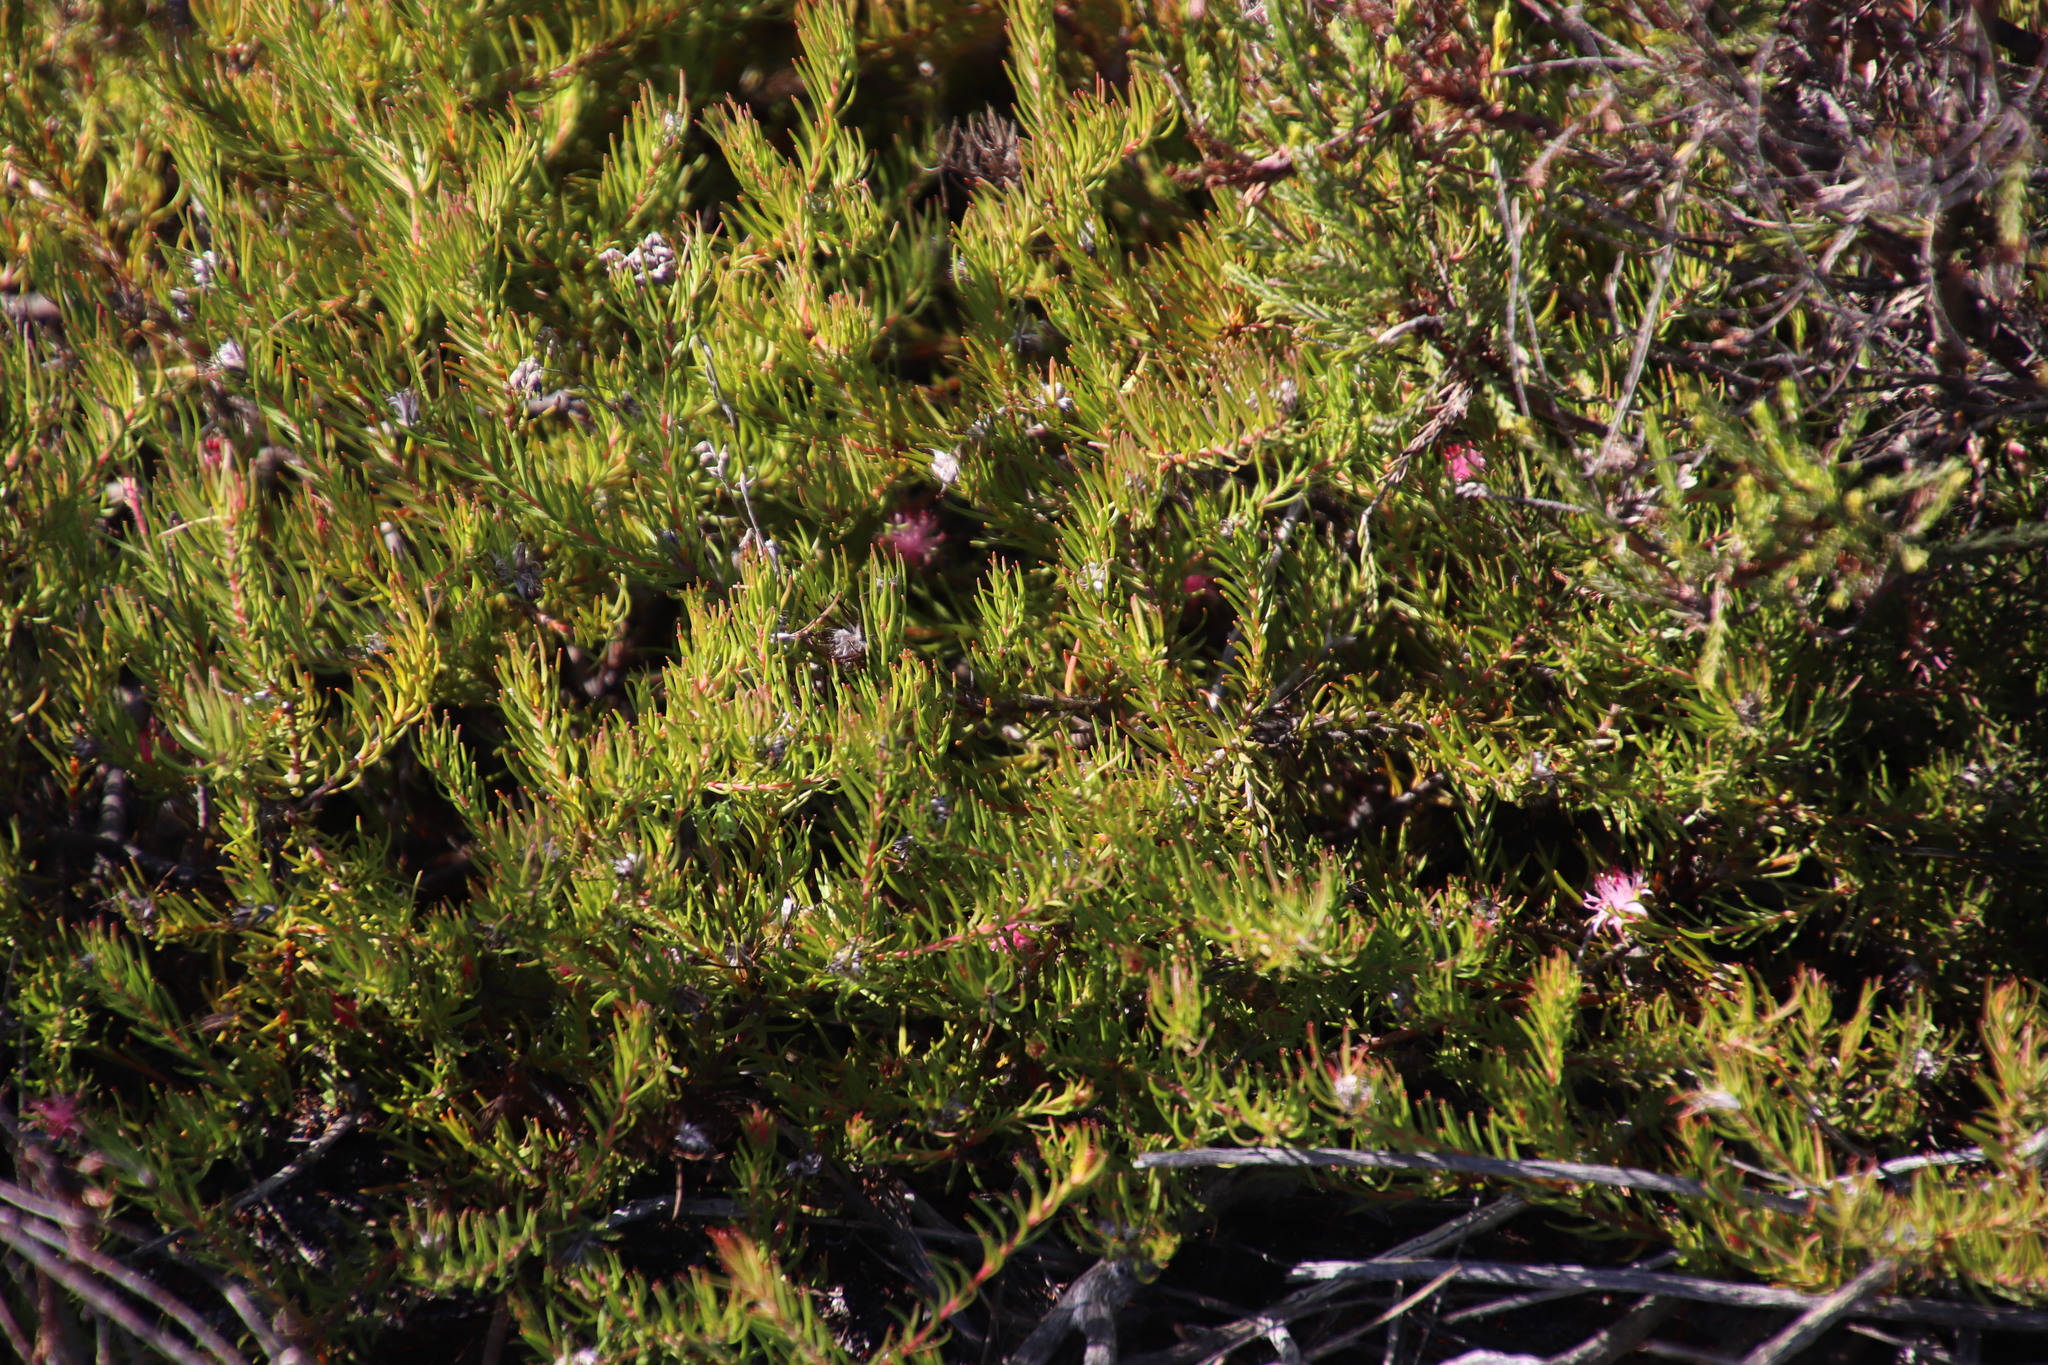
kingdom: Plantae
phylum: Tracheophyta
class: Magnoliopsida
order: Proteales
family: Proteaceae
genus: Diastella
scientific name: Diastella proteoides
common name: Flats silkypuff
